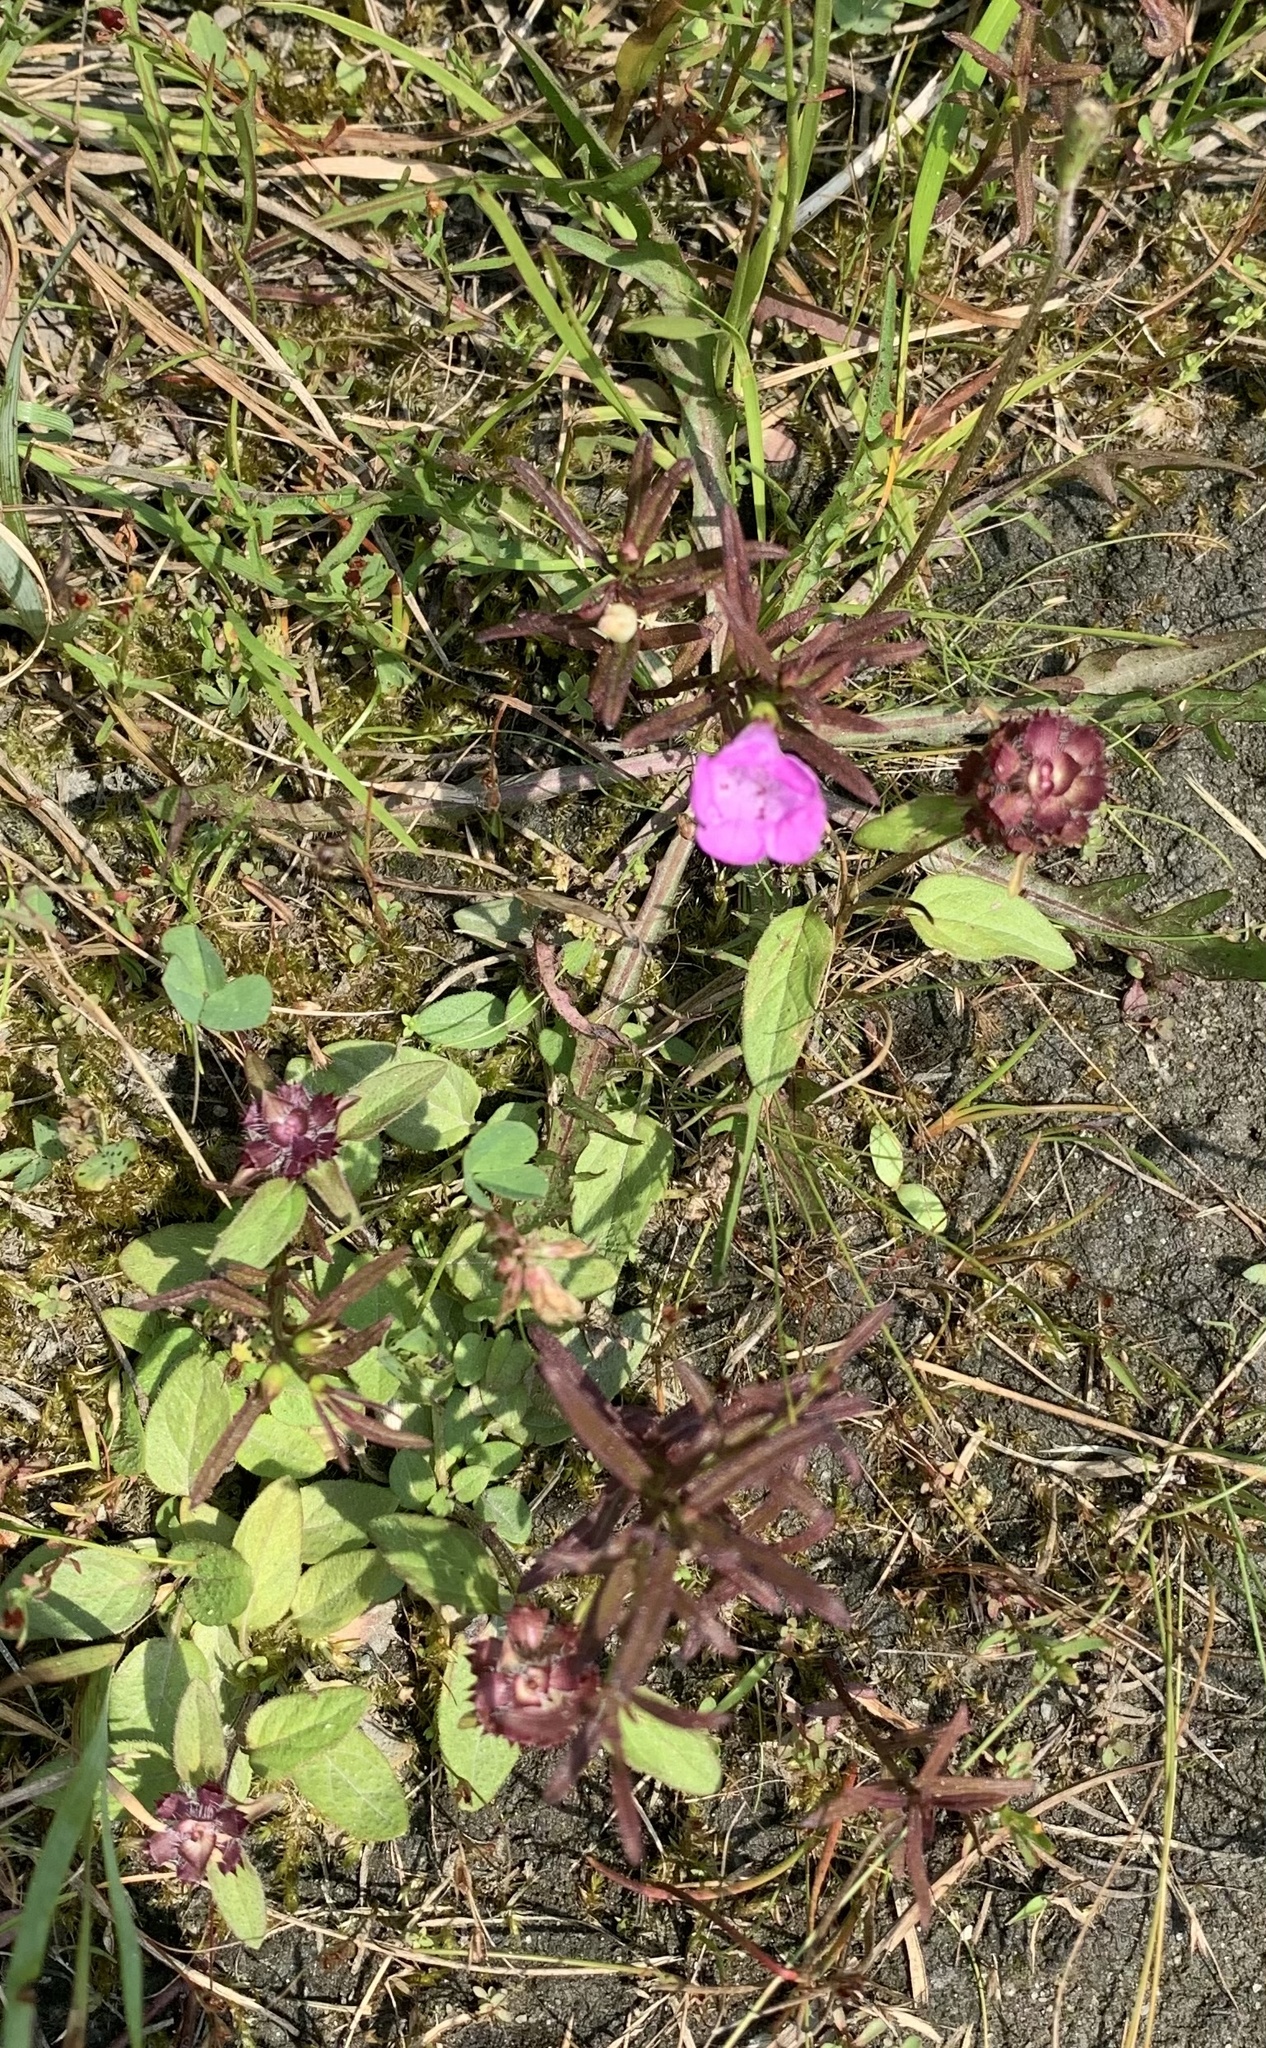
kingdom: Plantae
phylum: Tracheophyta
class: Magnoliopsida
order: Lamiales
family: Orobanchaceae
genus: Agalinis
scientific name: Agalinis neoscotica
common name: Middleton false foxglove
